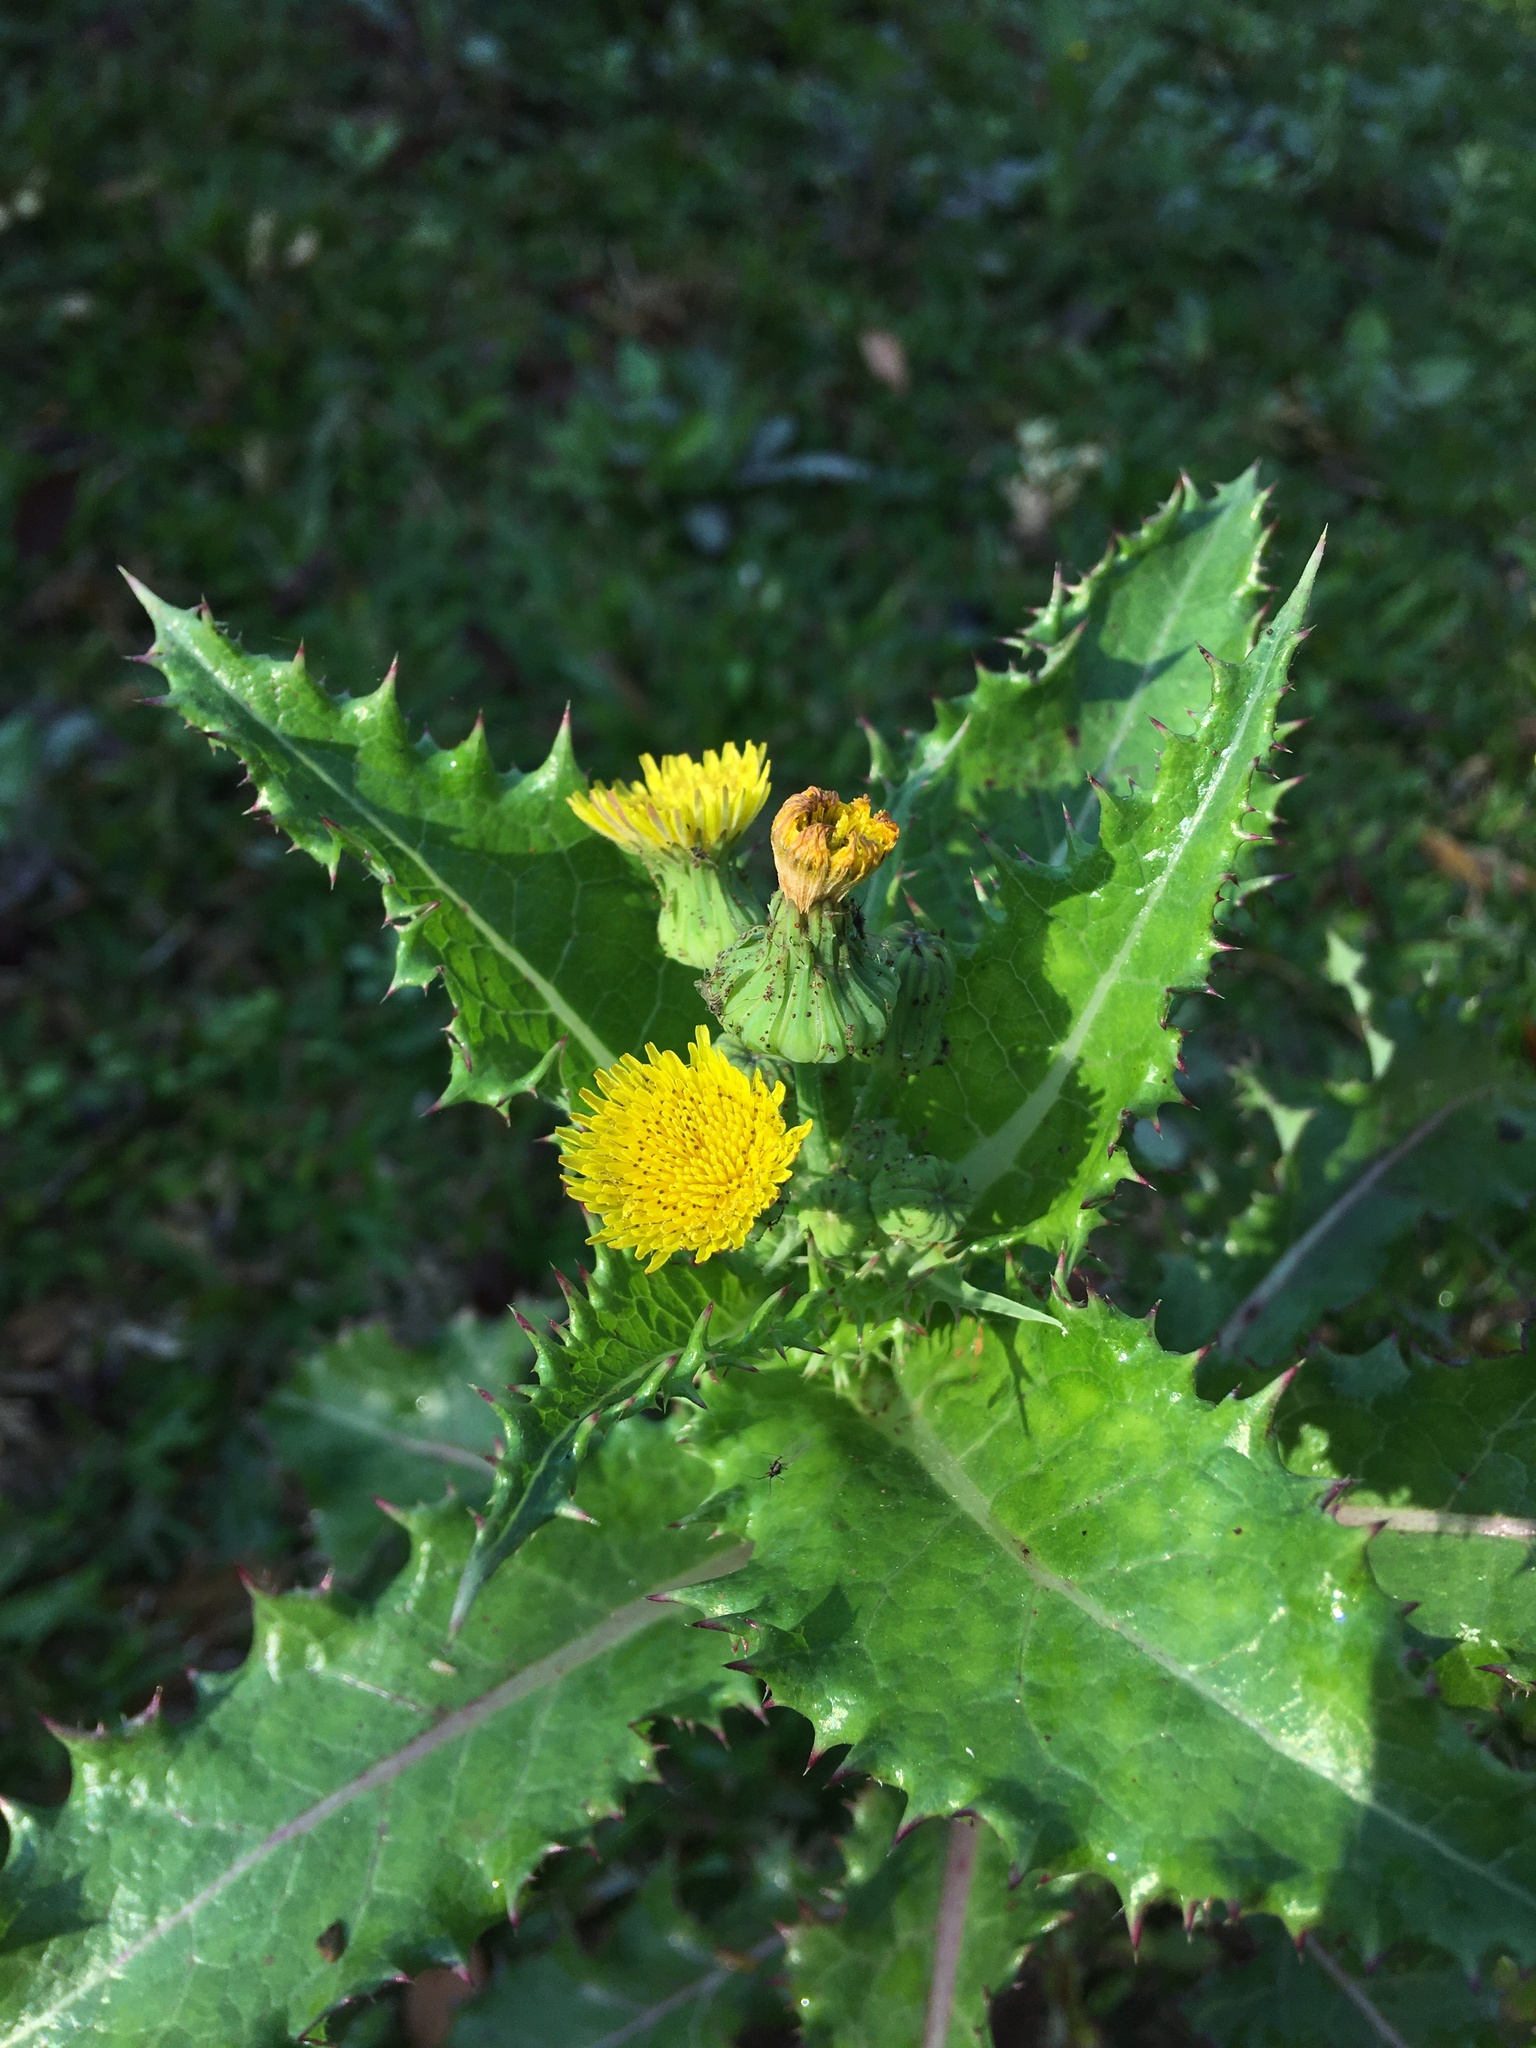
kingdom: Plantae
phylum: Tracheophyta
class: Magnoliopsida
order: Asterales
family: Asteraceae
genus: Sonchus
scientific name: Sonchus asper
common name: Prickly sow-thistle
